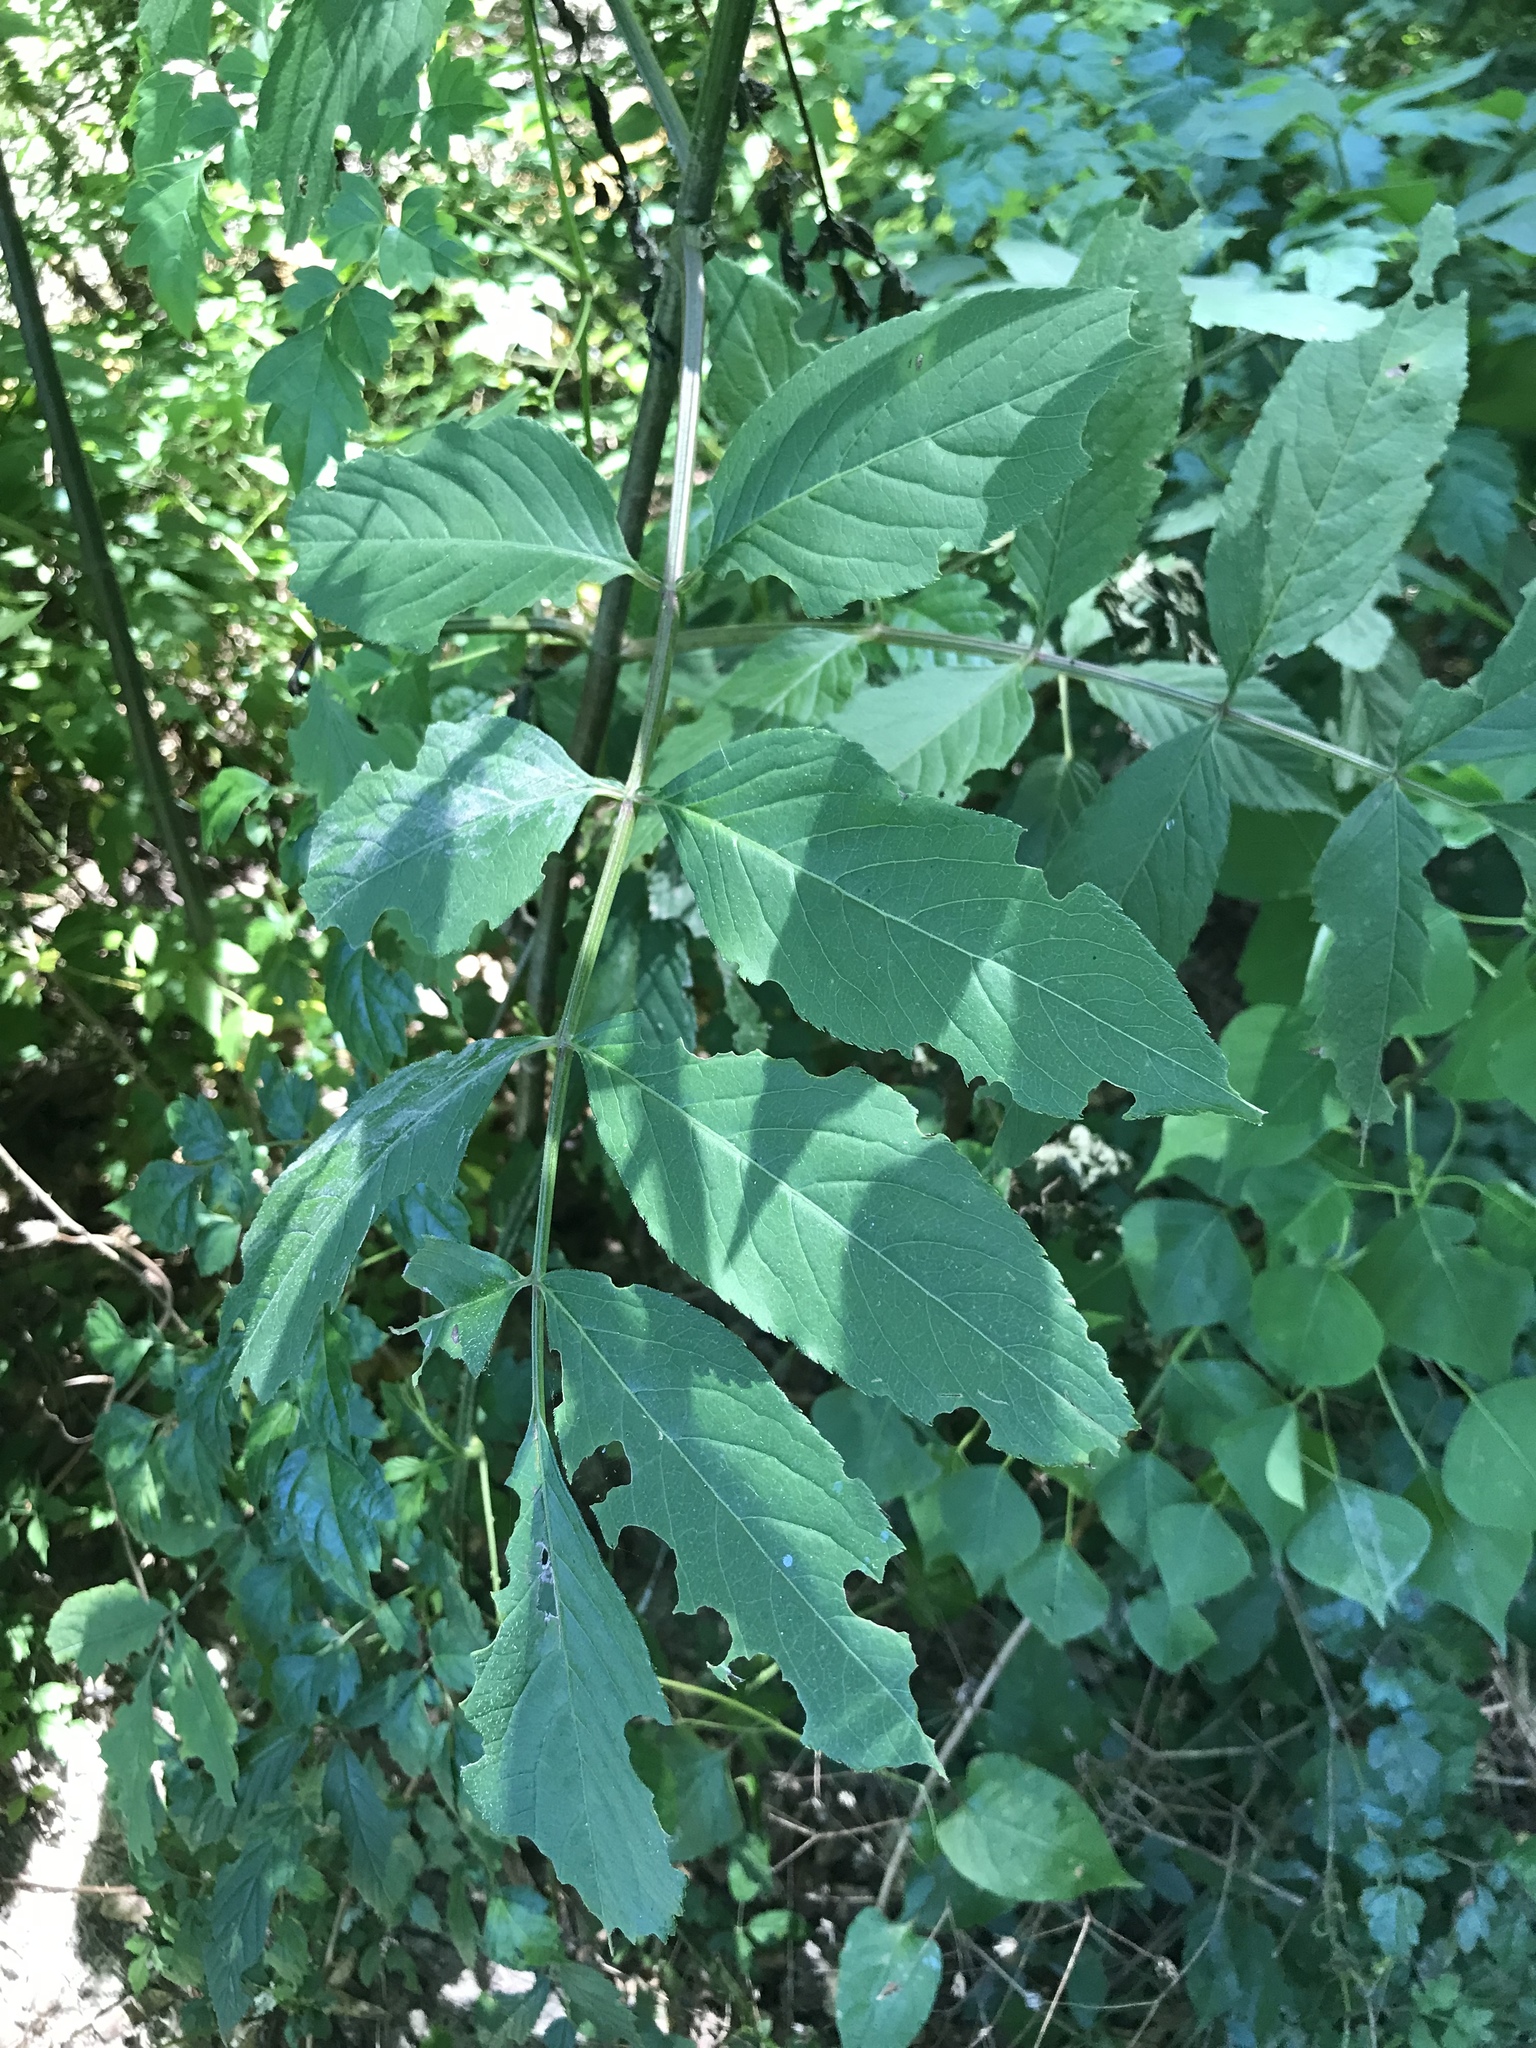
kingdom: Plantae
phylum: Tracheophyta
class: Magnoliopsida
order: Dipsacales
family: Viburnaceae
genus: Sambucus
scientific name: Sambucus canadensis
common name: American elder
